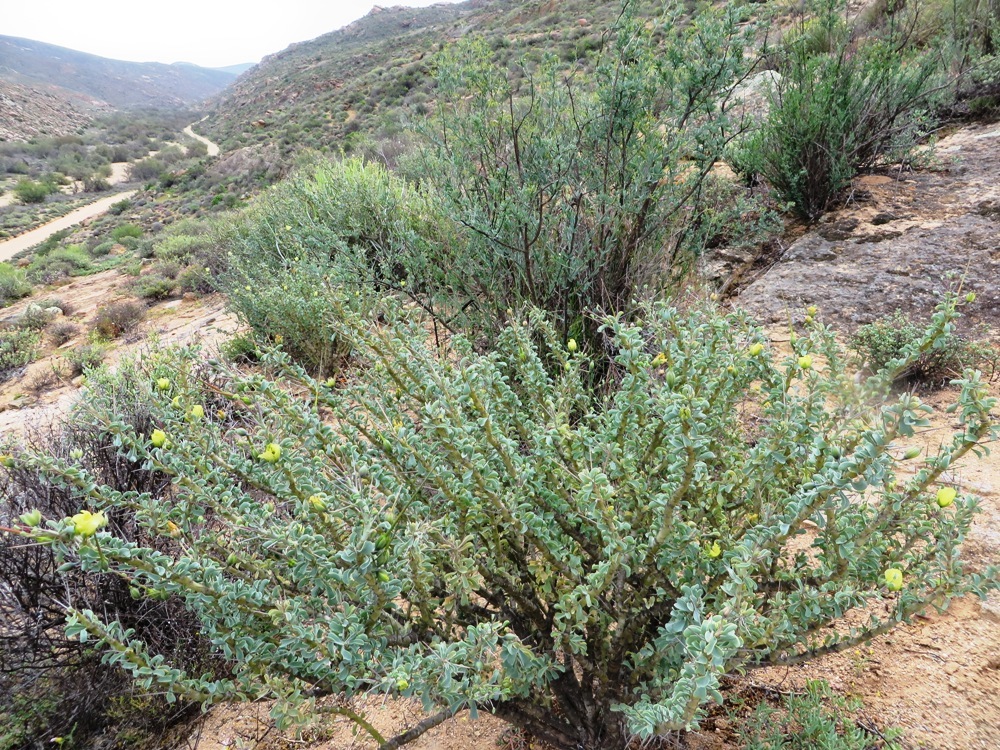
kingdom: Plantae
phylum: Tracheophyta
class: Magnoliopsida
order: Geraniales
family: Geraniaceae
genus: Monsonia
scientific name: Monsonia spinosa
